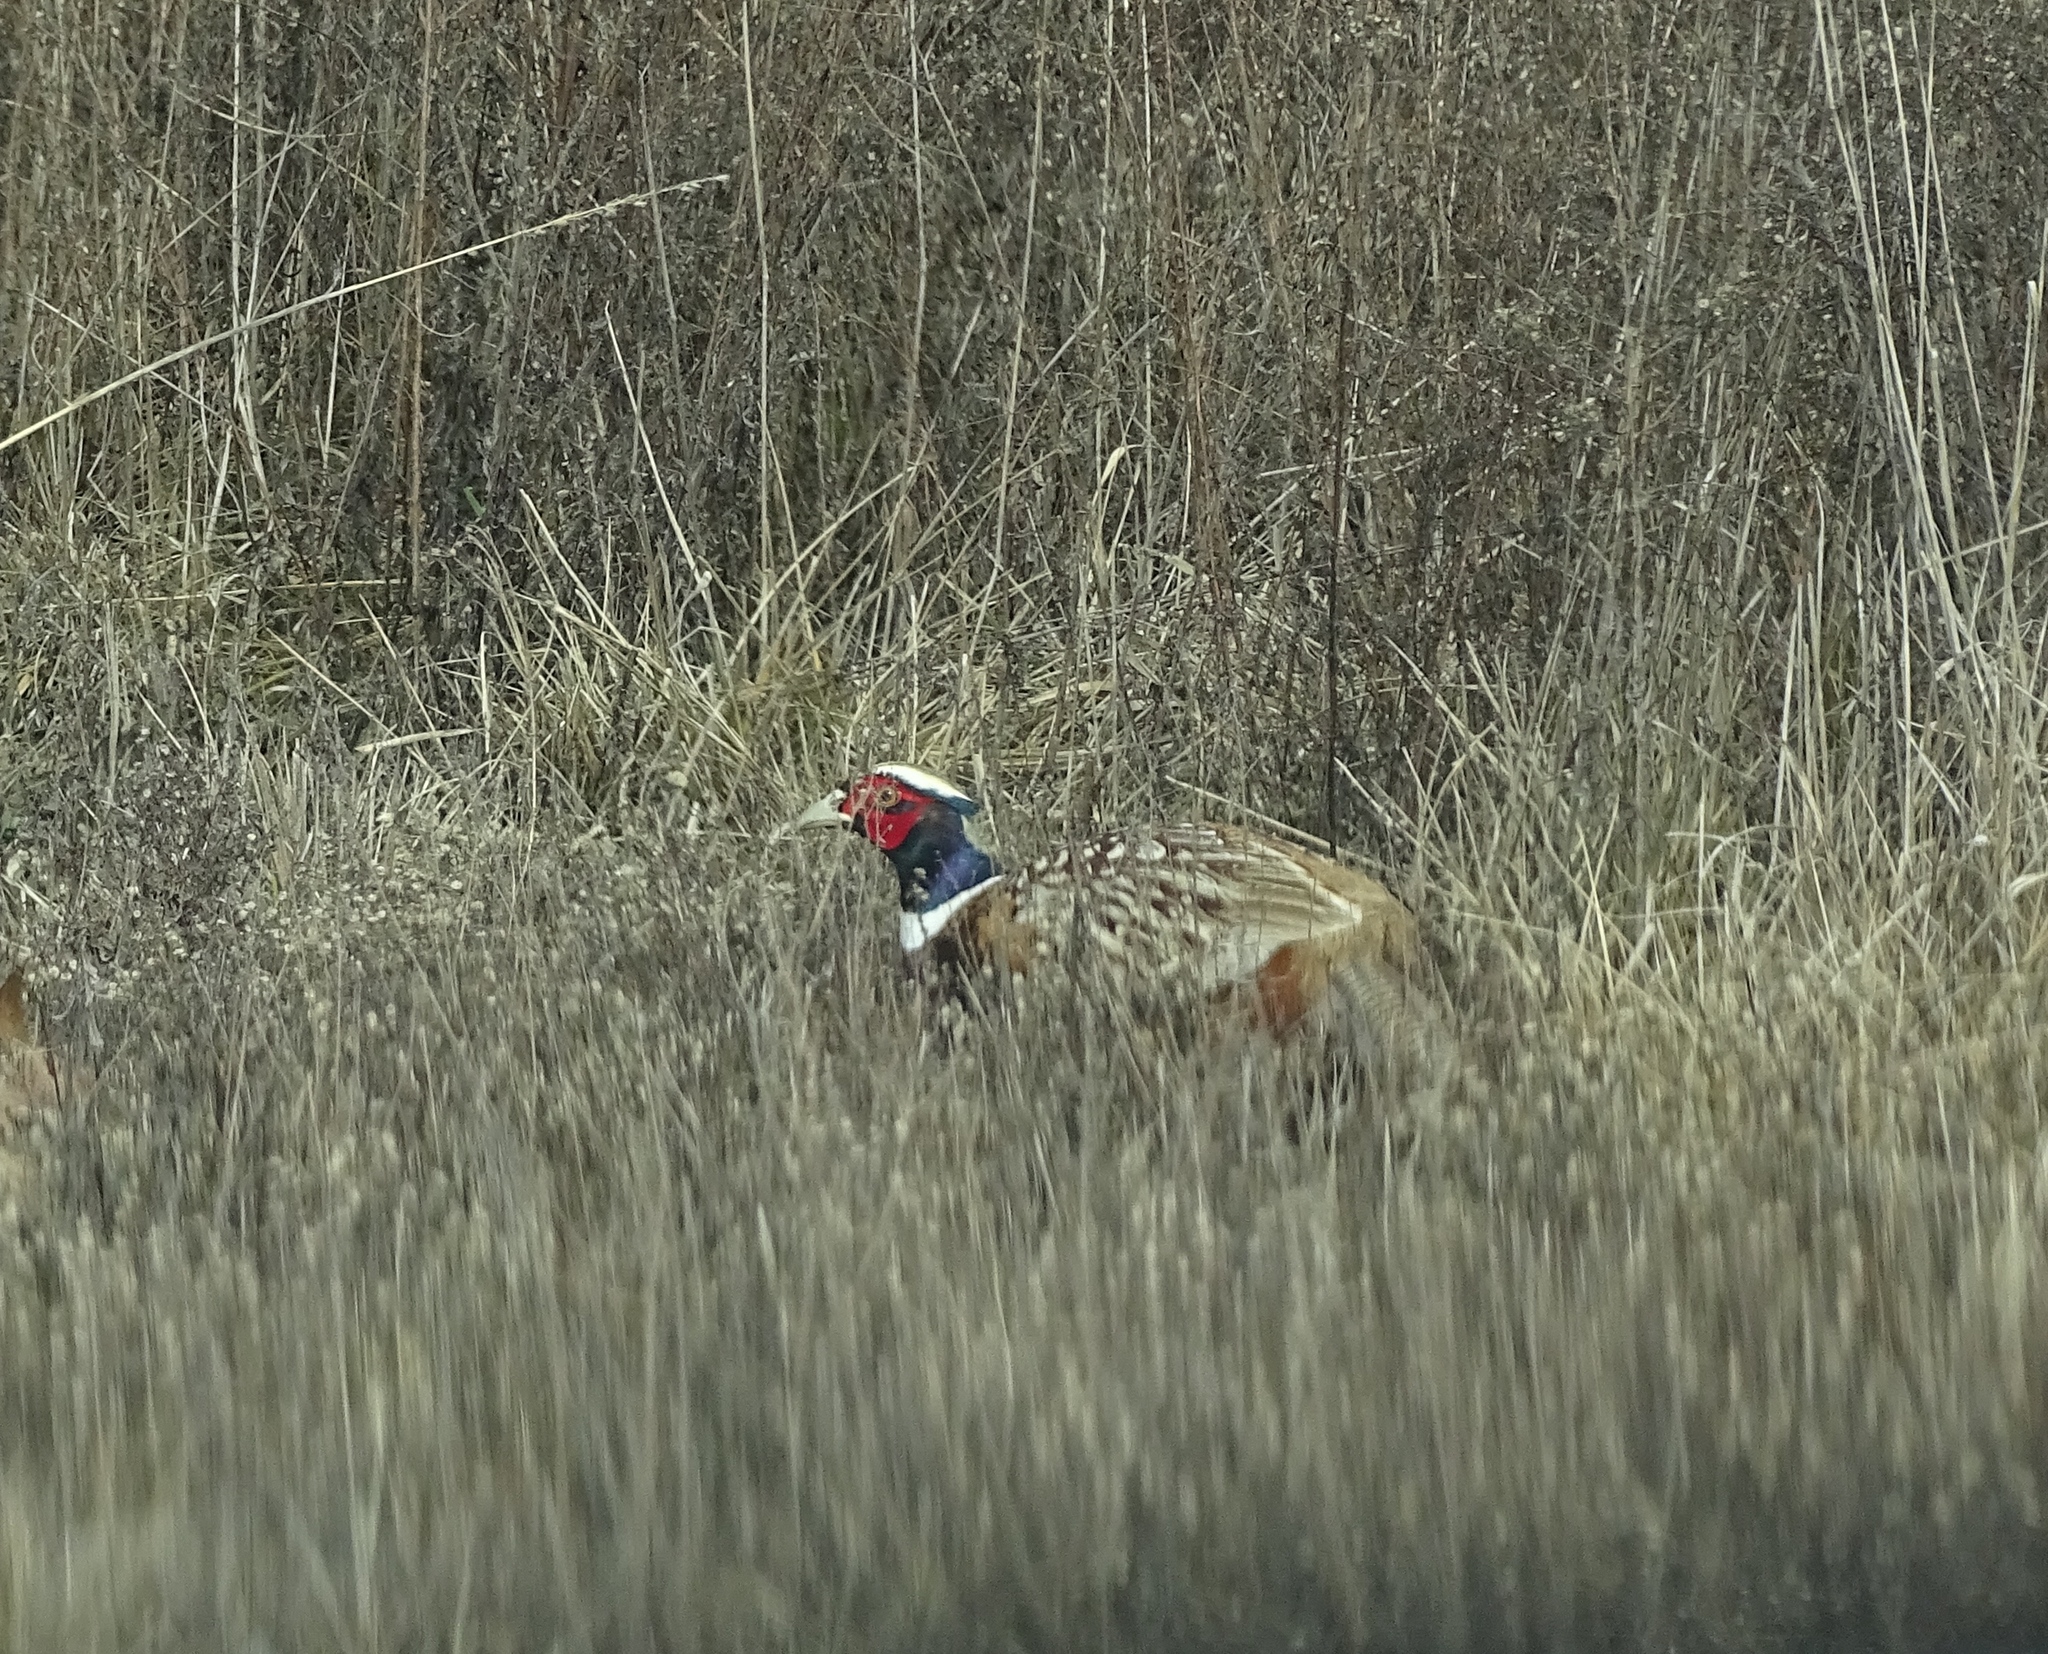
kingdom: Animalia
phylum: Chordata
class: Aves
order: Galliformes
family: Phasianidae
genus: Phasianus
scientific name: Phasianus colchicus
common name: Common pheasant
